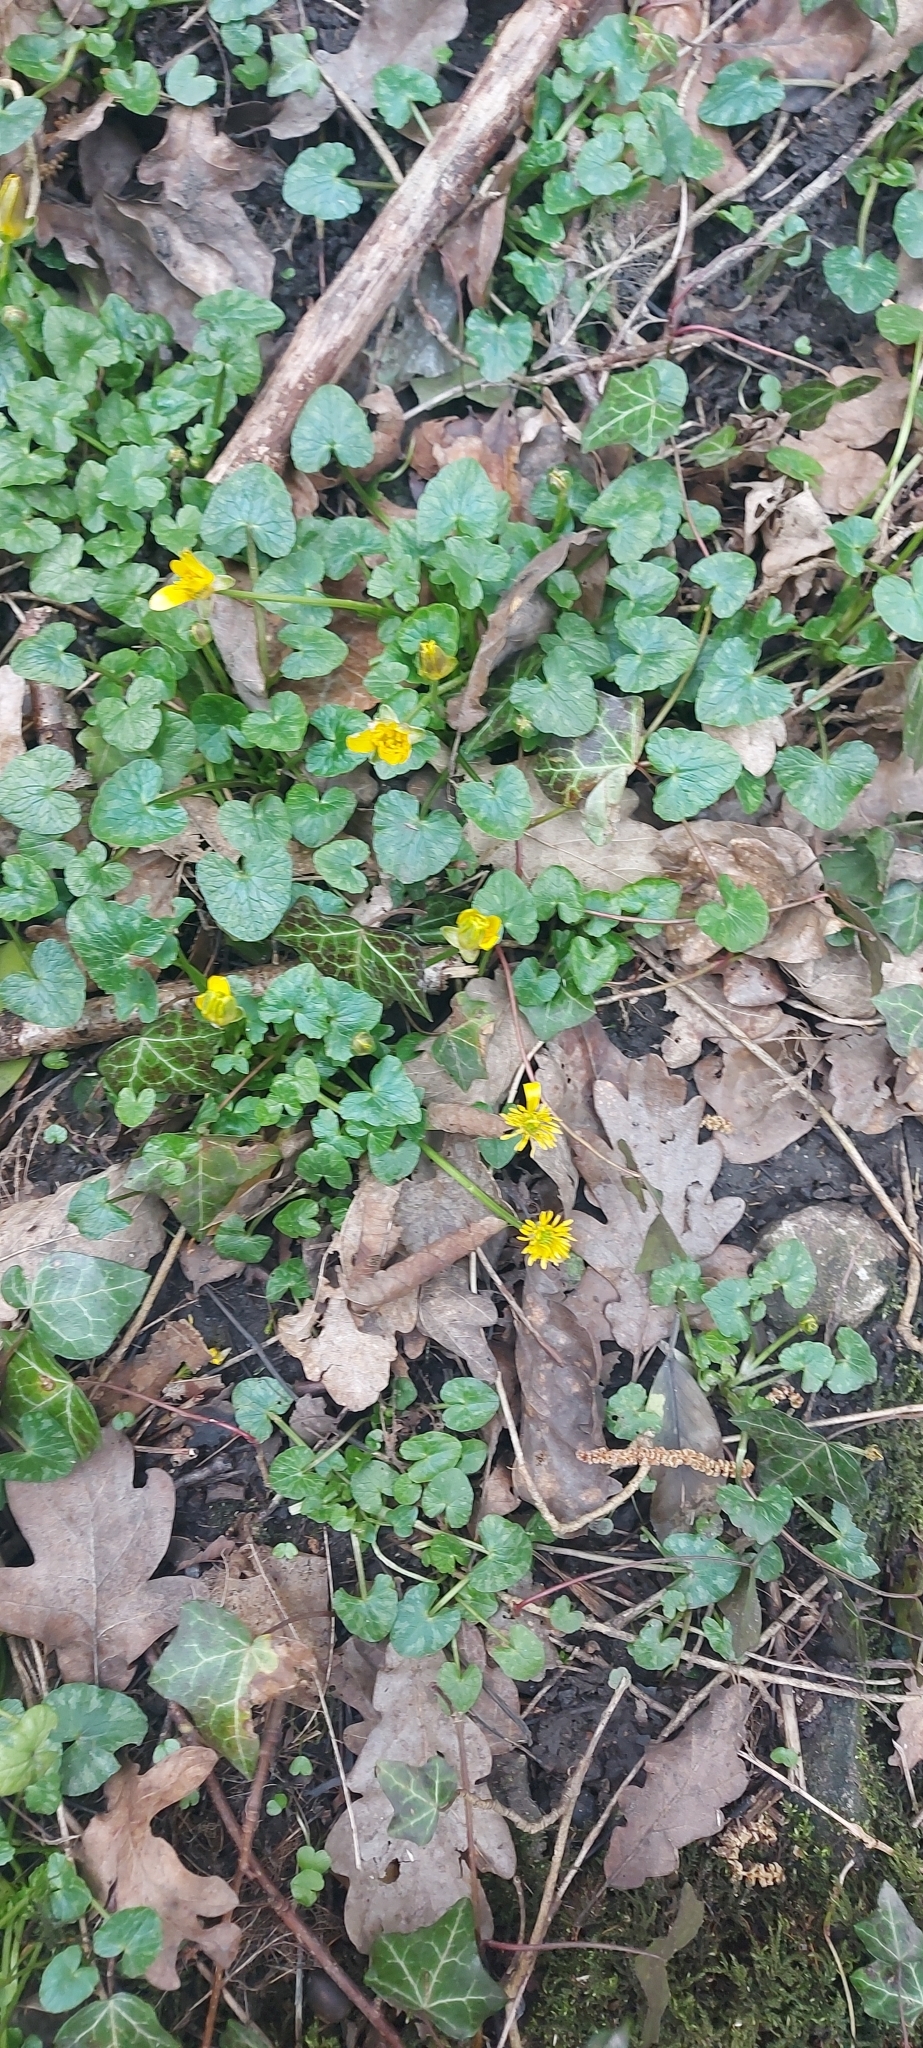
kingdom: Plantae
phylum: Tracheophyta
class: Magnoliopsida
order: Ranunculales
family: Ranunculaceae
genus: Ficaria
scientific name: Ficaria verna
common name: Lesser celandine
